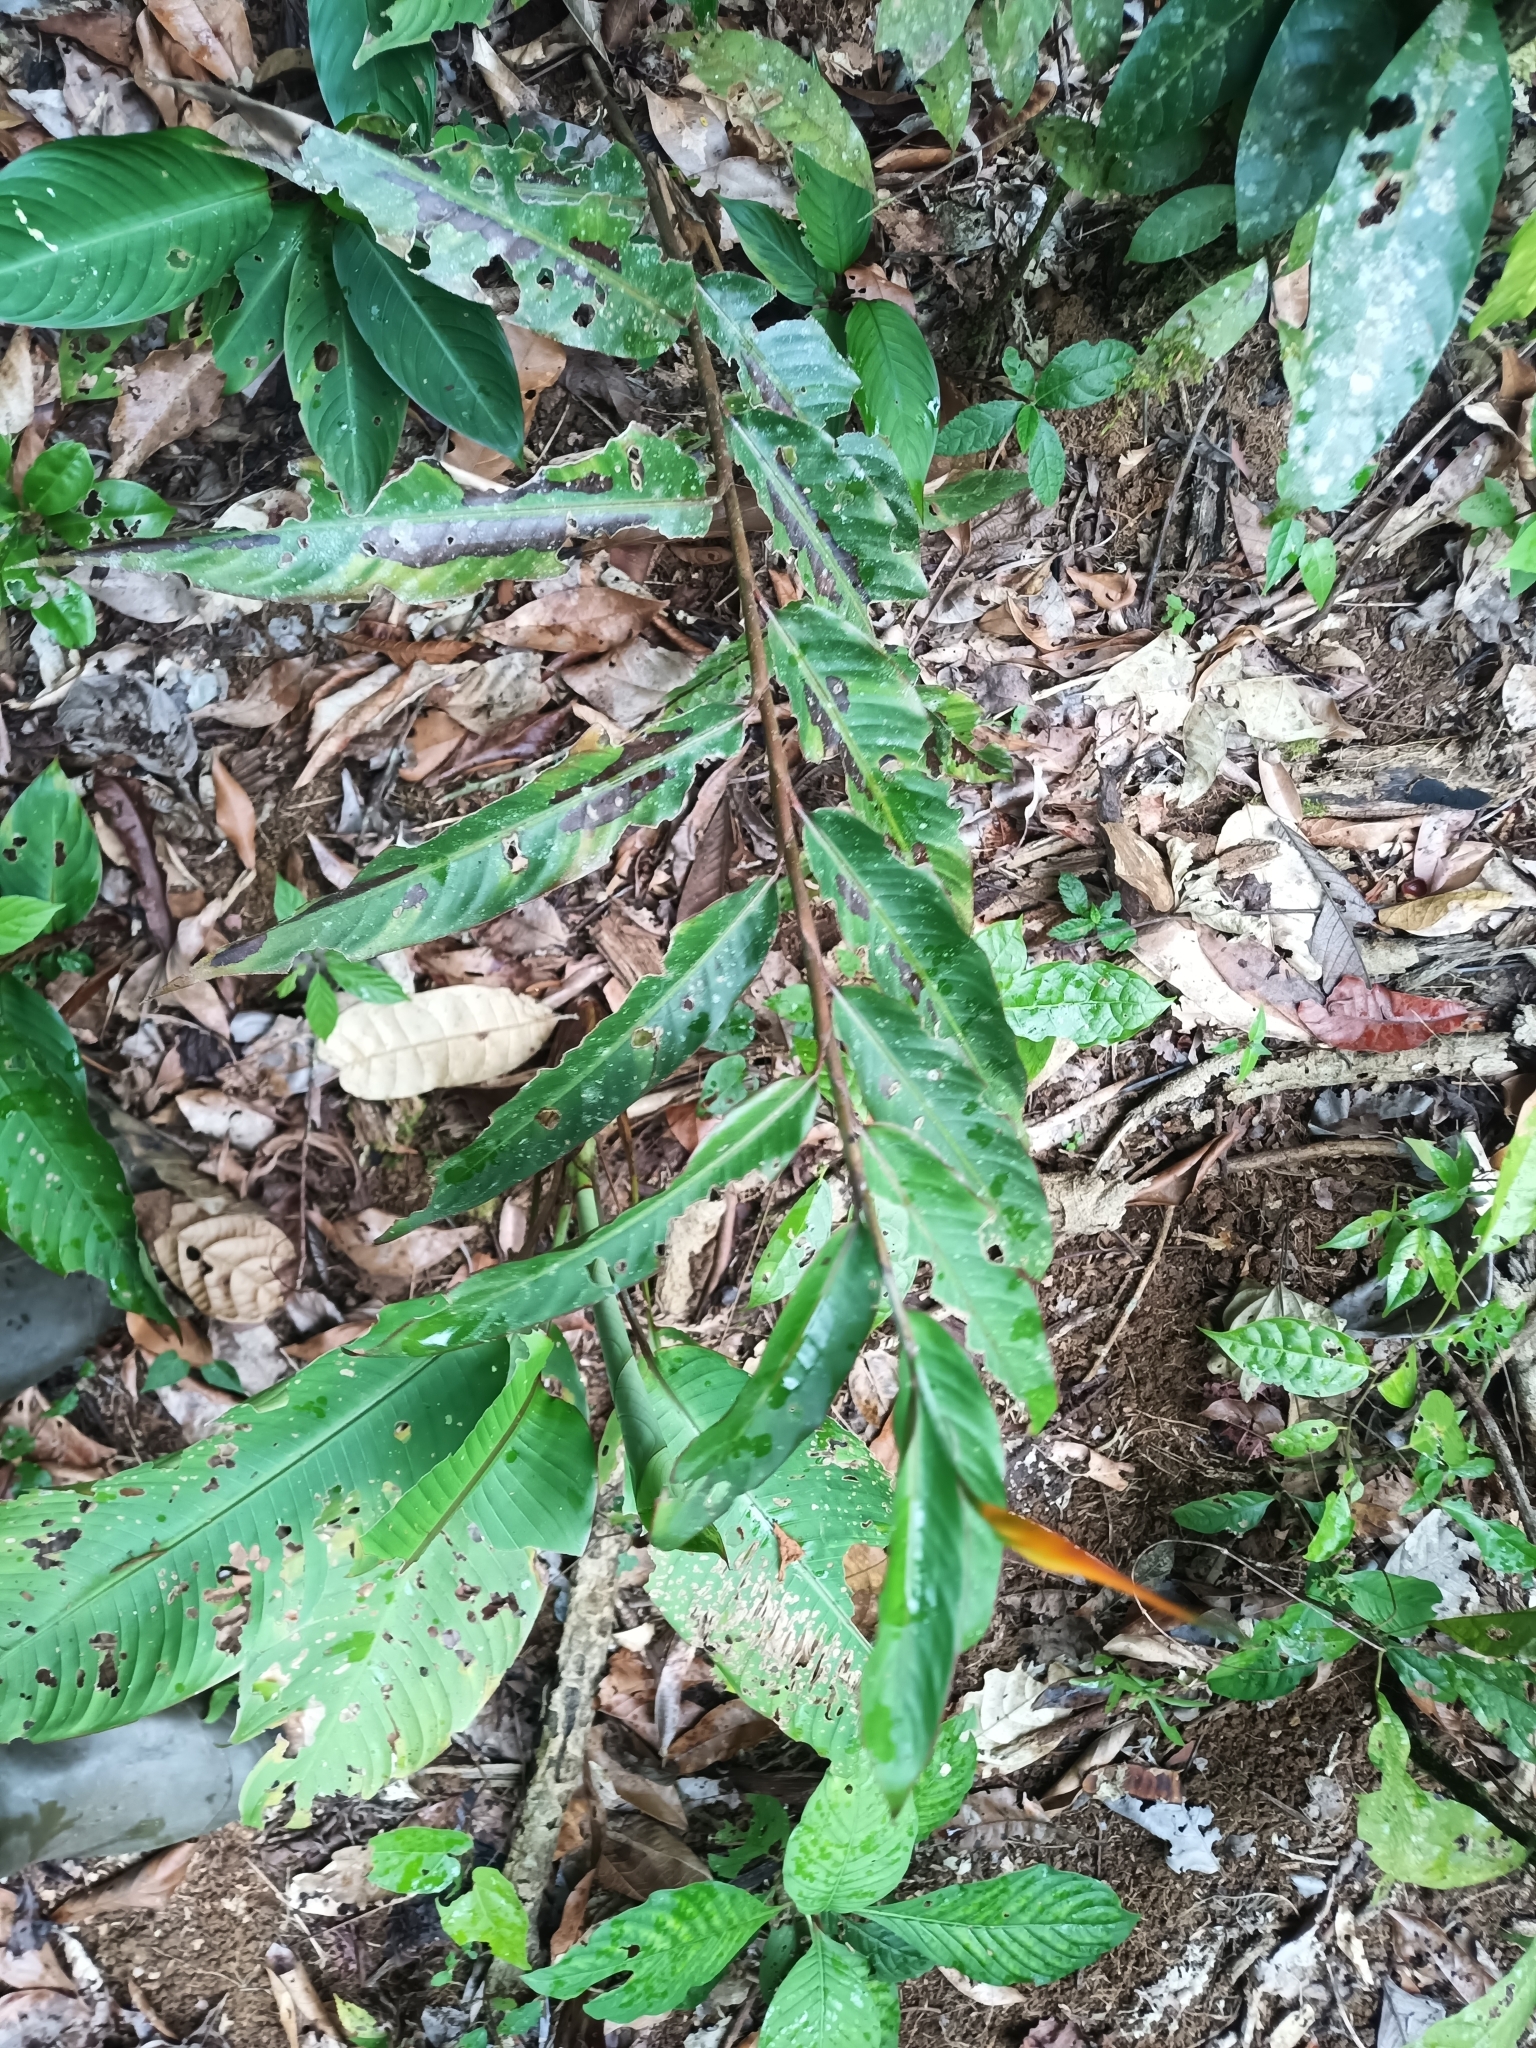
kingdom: Plantae
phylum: Tracheophyta
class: Liliopsida
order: Zingiberales
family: Heliconiaceae
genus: Heliconia
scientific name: Heliconia hirsuta
